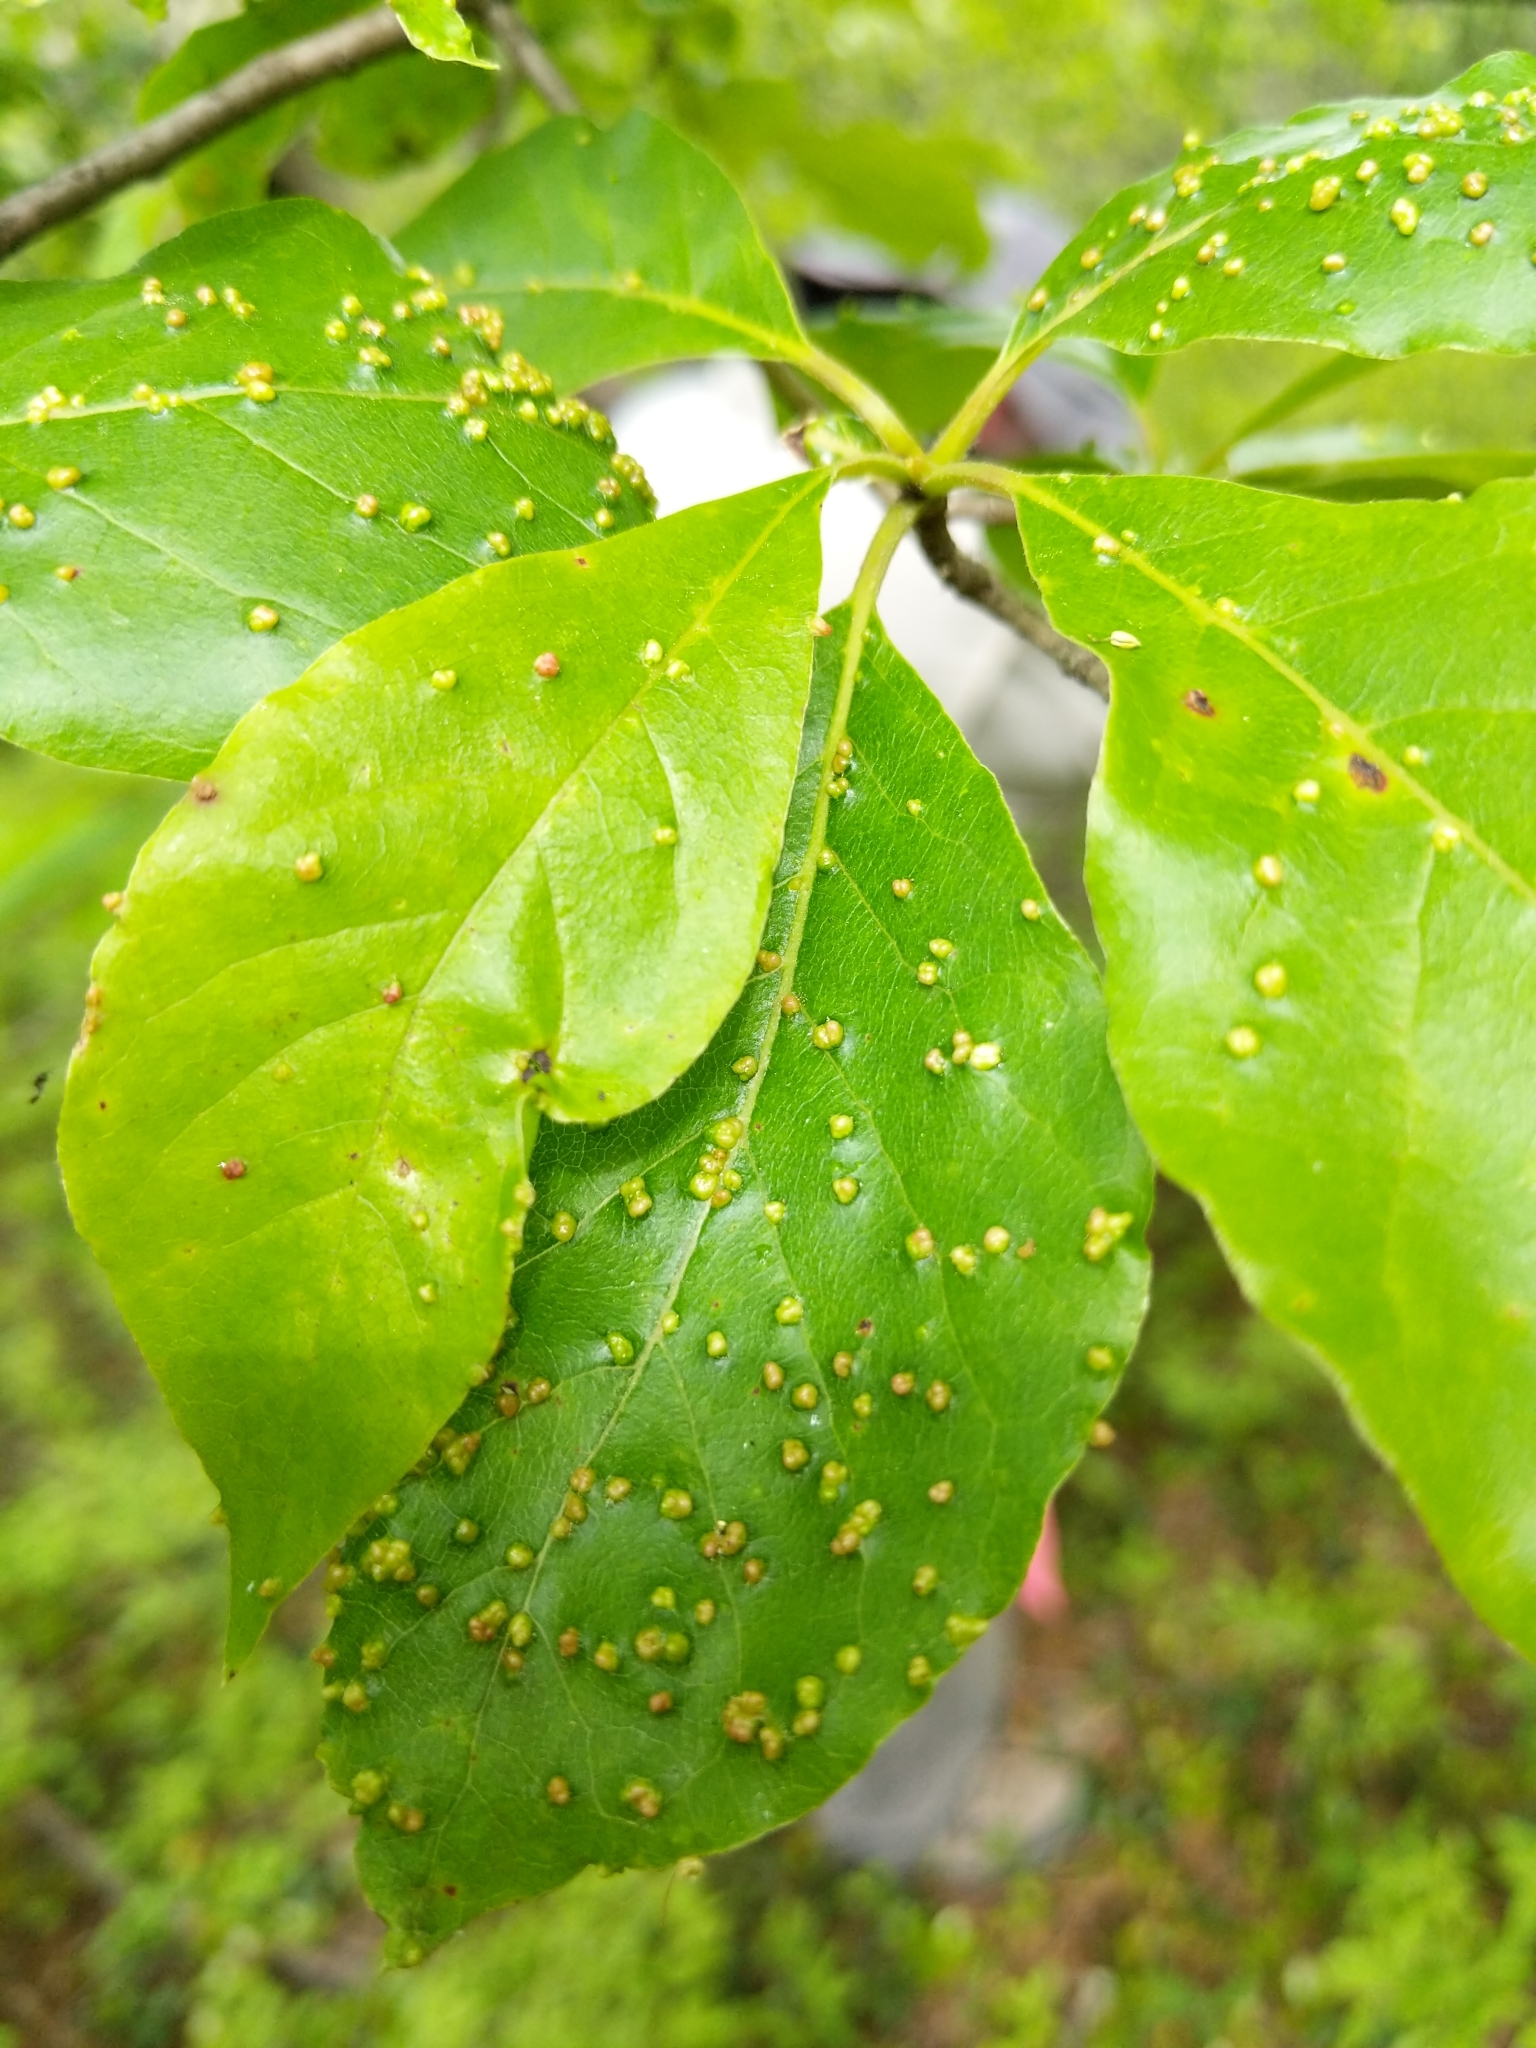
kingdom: Animalia
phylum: Arthropoda
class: Arachnida
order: Trombidiformes
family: Eriophyidae
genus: Aceria
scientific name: Aceria
